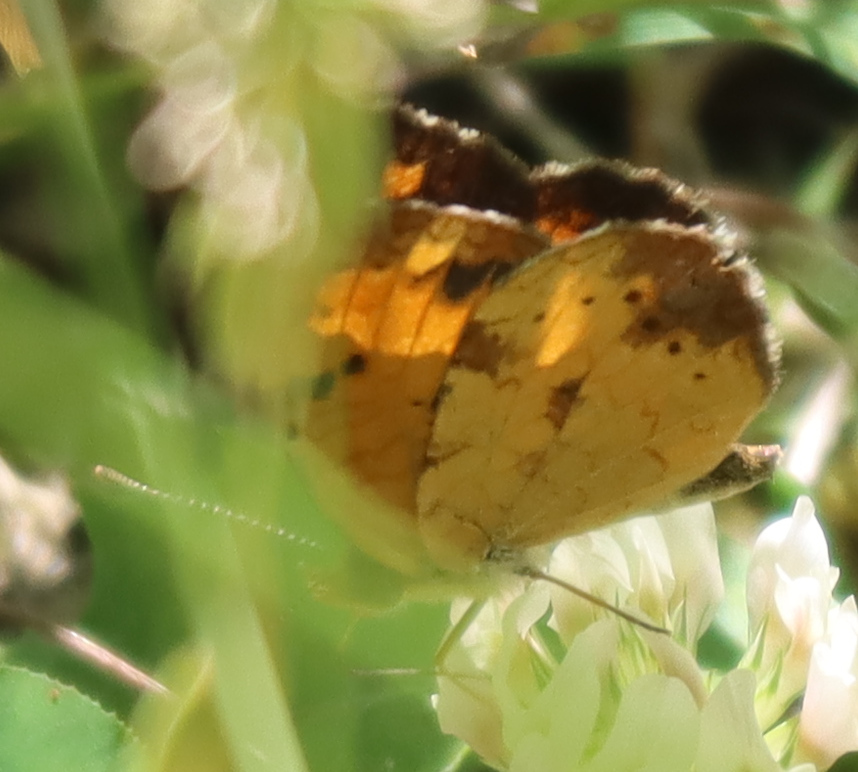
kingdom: Animalia
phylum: Arthropoda
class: Insecta
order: Lepidoptera
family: Nymphalidae
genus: Phyciodes
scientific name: Phyciodes tharos
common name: Pearl crescent
